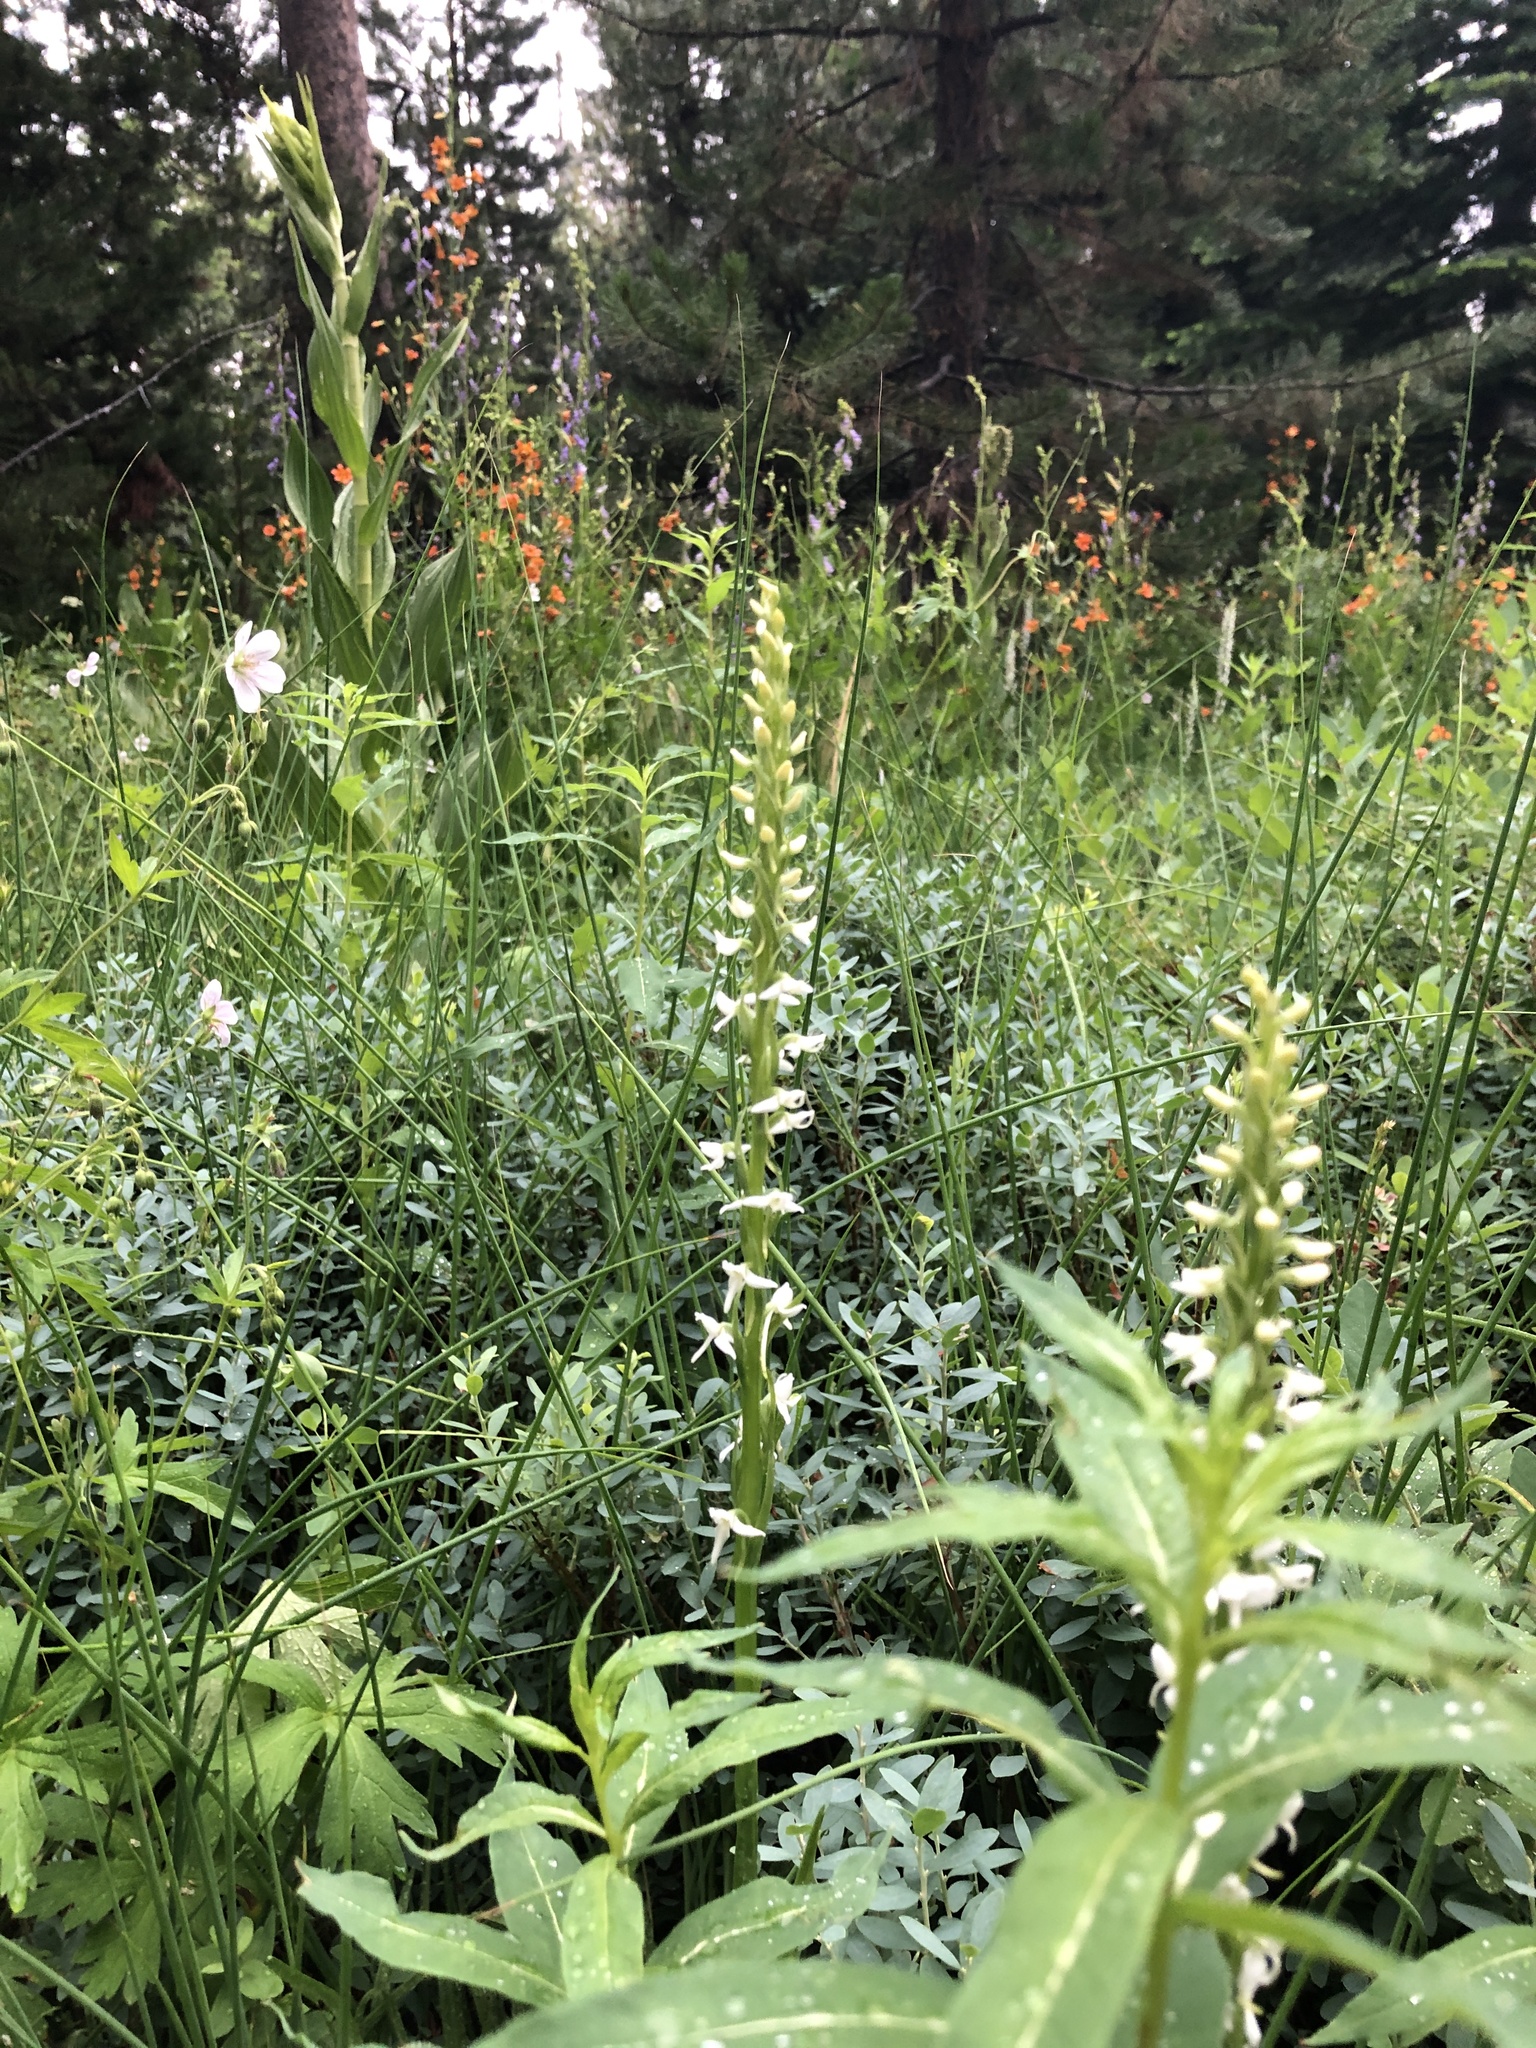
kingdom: Plantae
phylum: Tracheophyta
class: Liliopsida
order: Asparagales
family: Orchidaceae
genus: Platanthera
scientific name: Platanthera dilatata
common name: Bog candles
